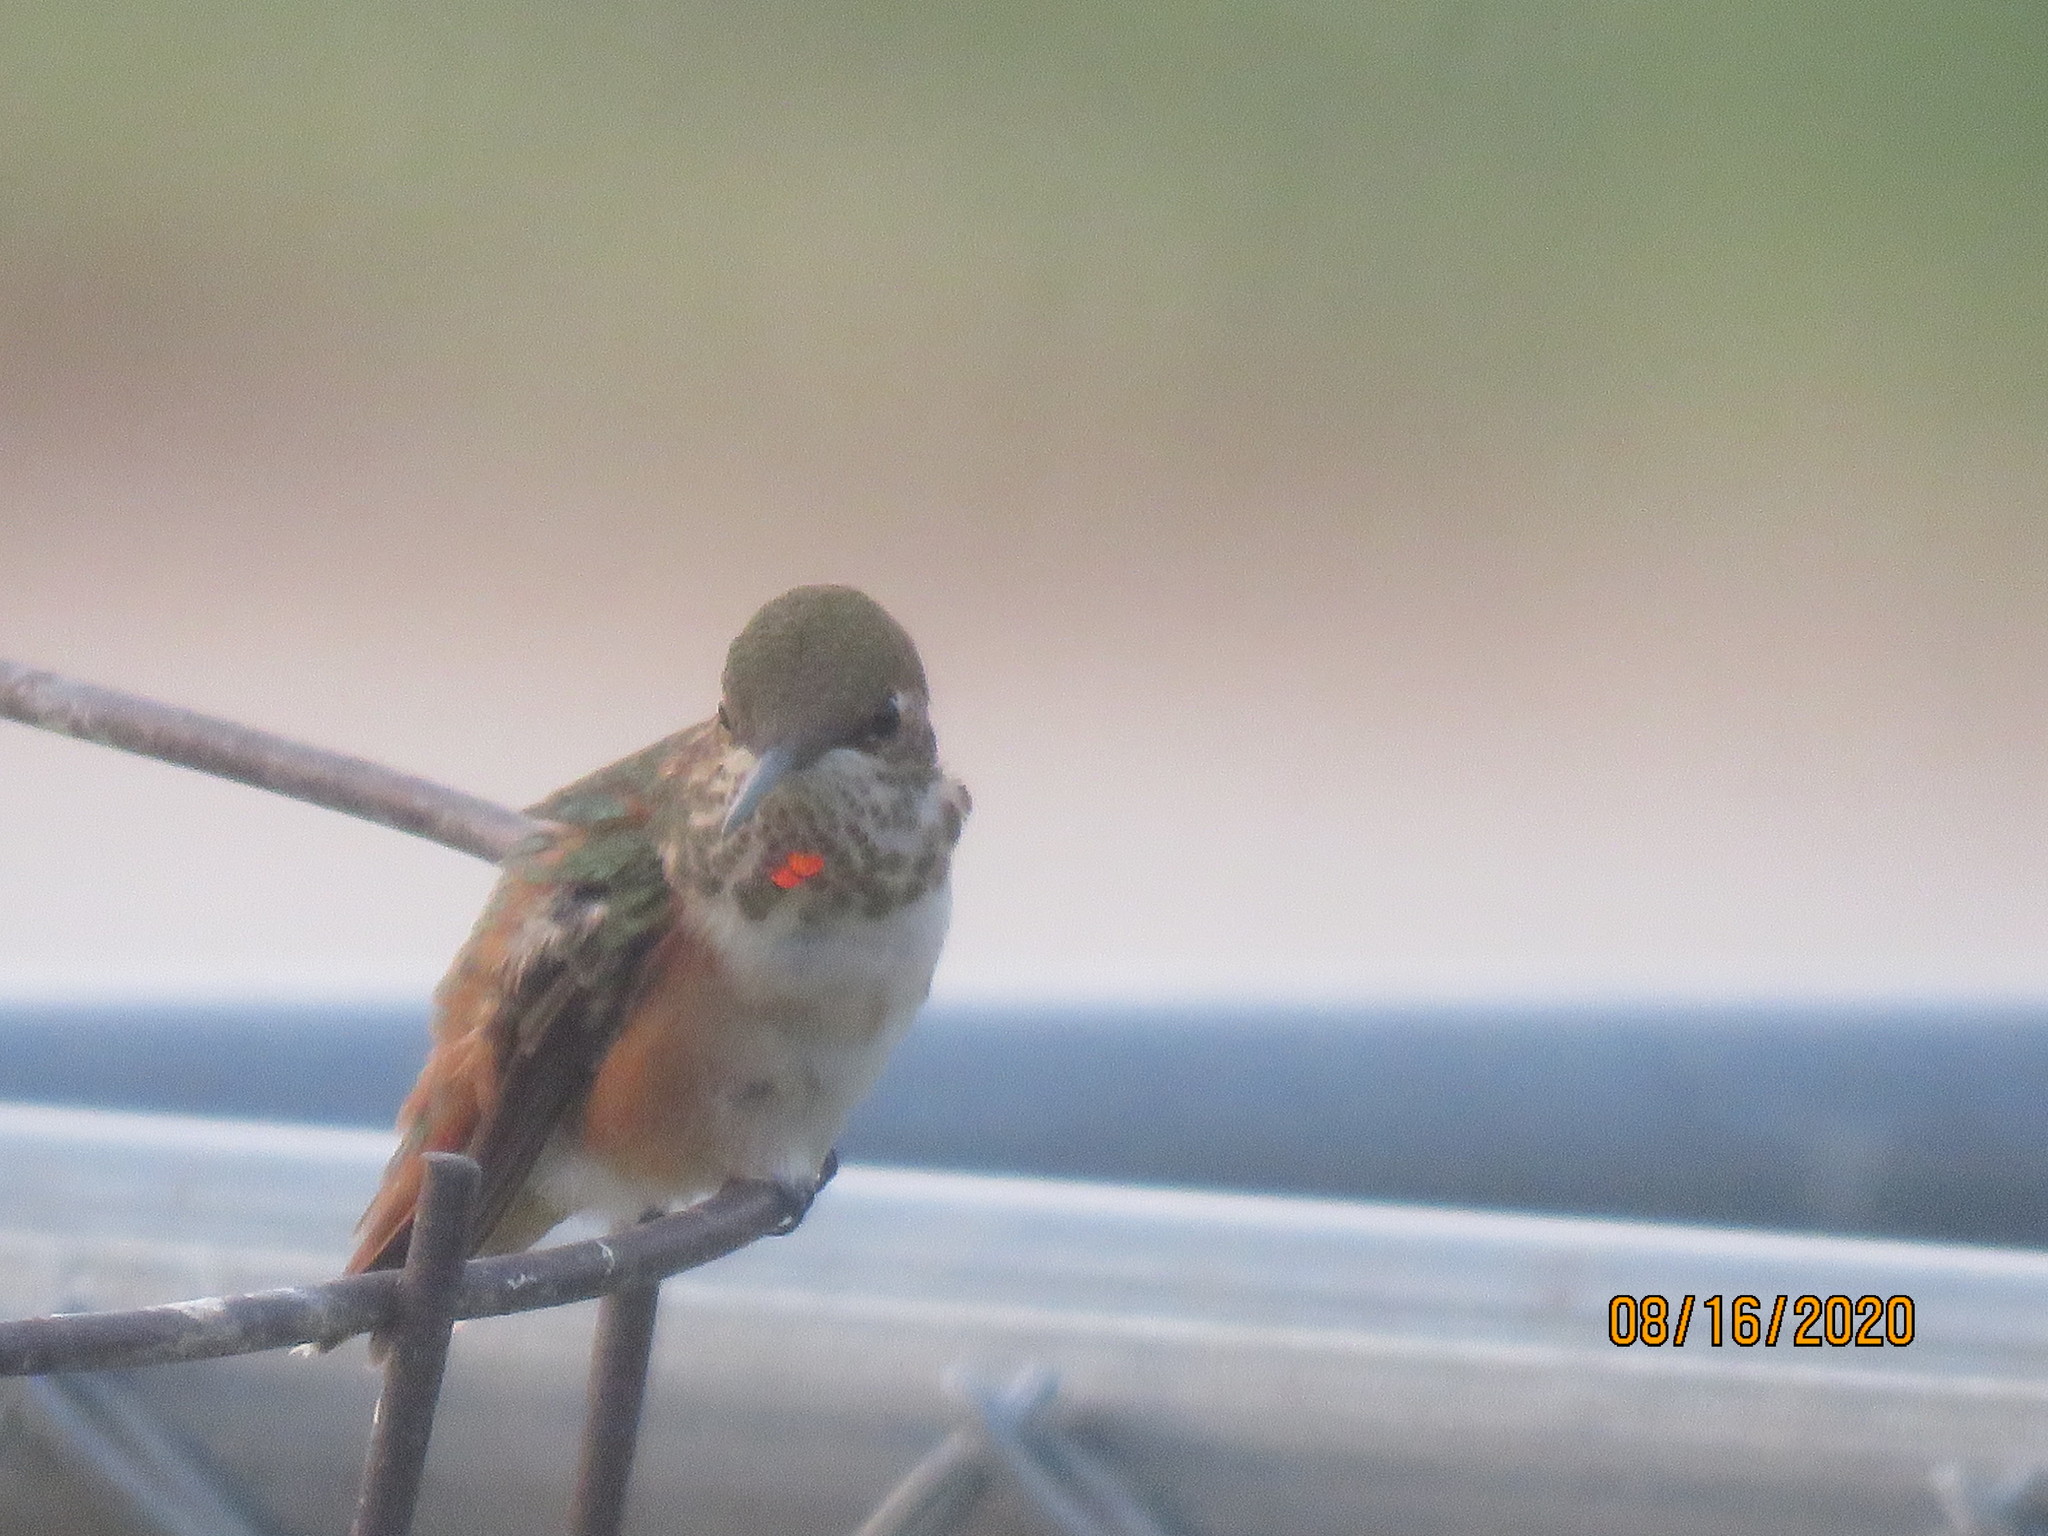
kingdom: Animalia
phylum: Chordata
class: Aves
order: Apodiformes
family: Trochilidae
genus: Selasphorus
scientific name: Selasphorus rufus
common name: Rufous hummingbird
